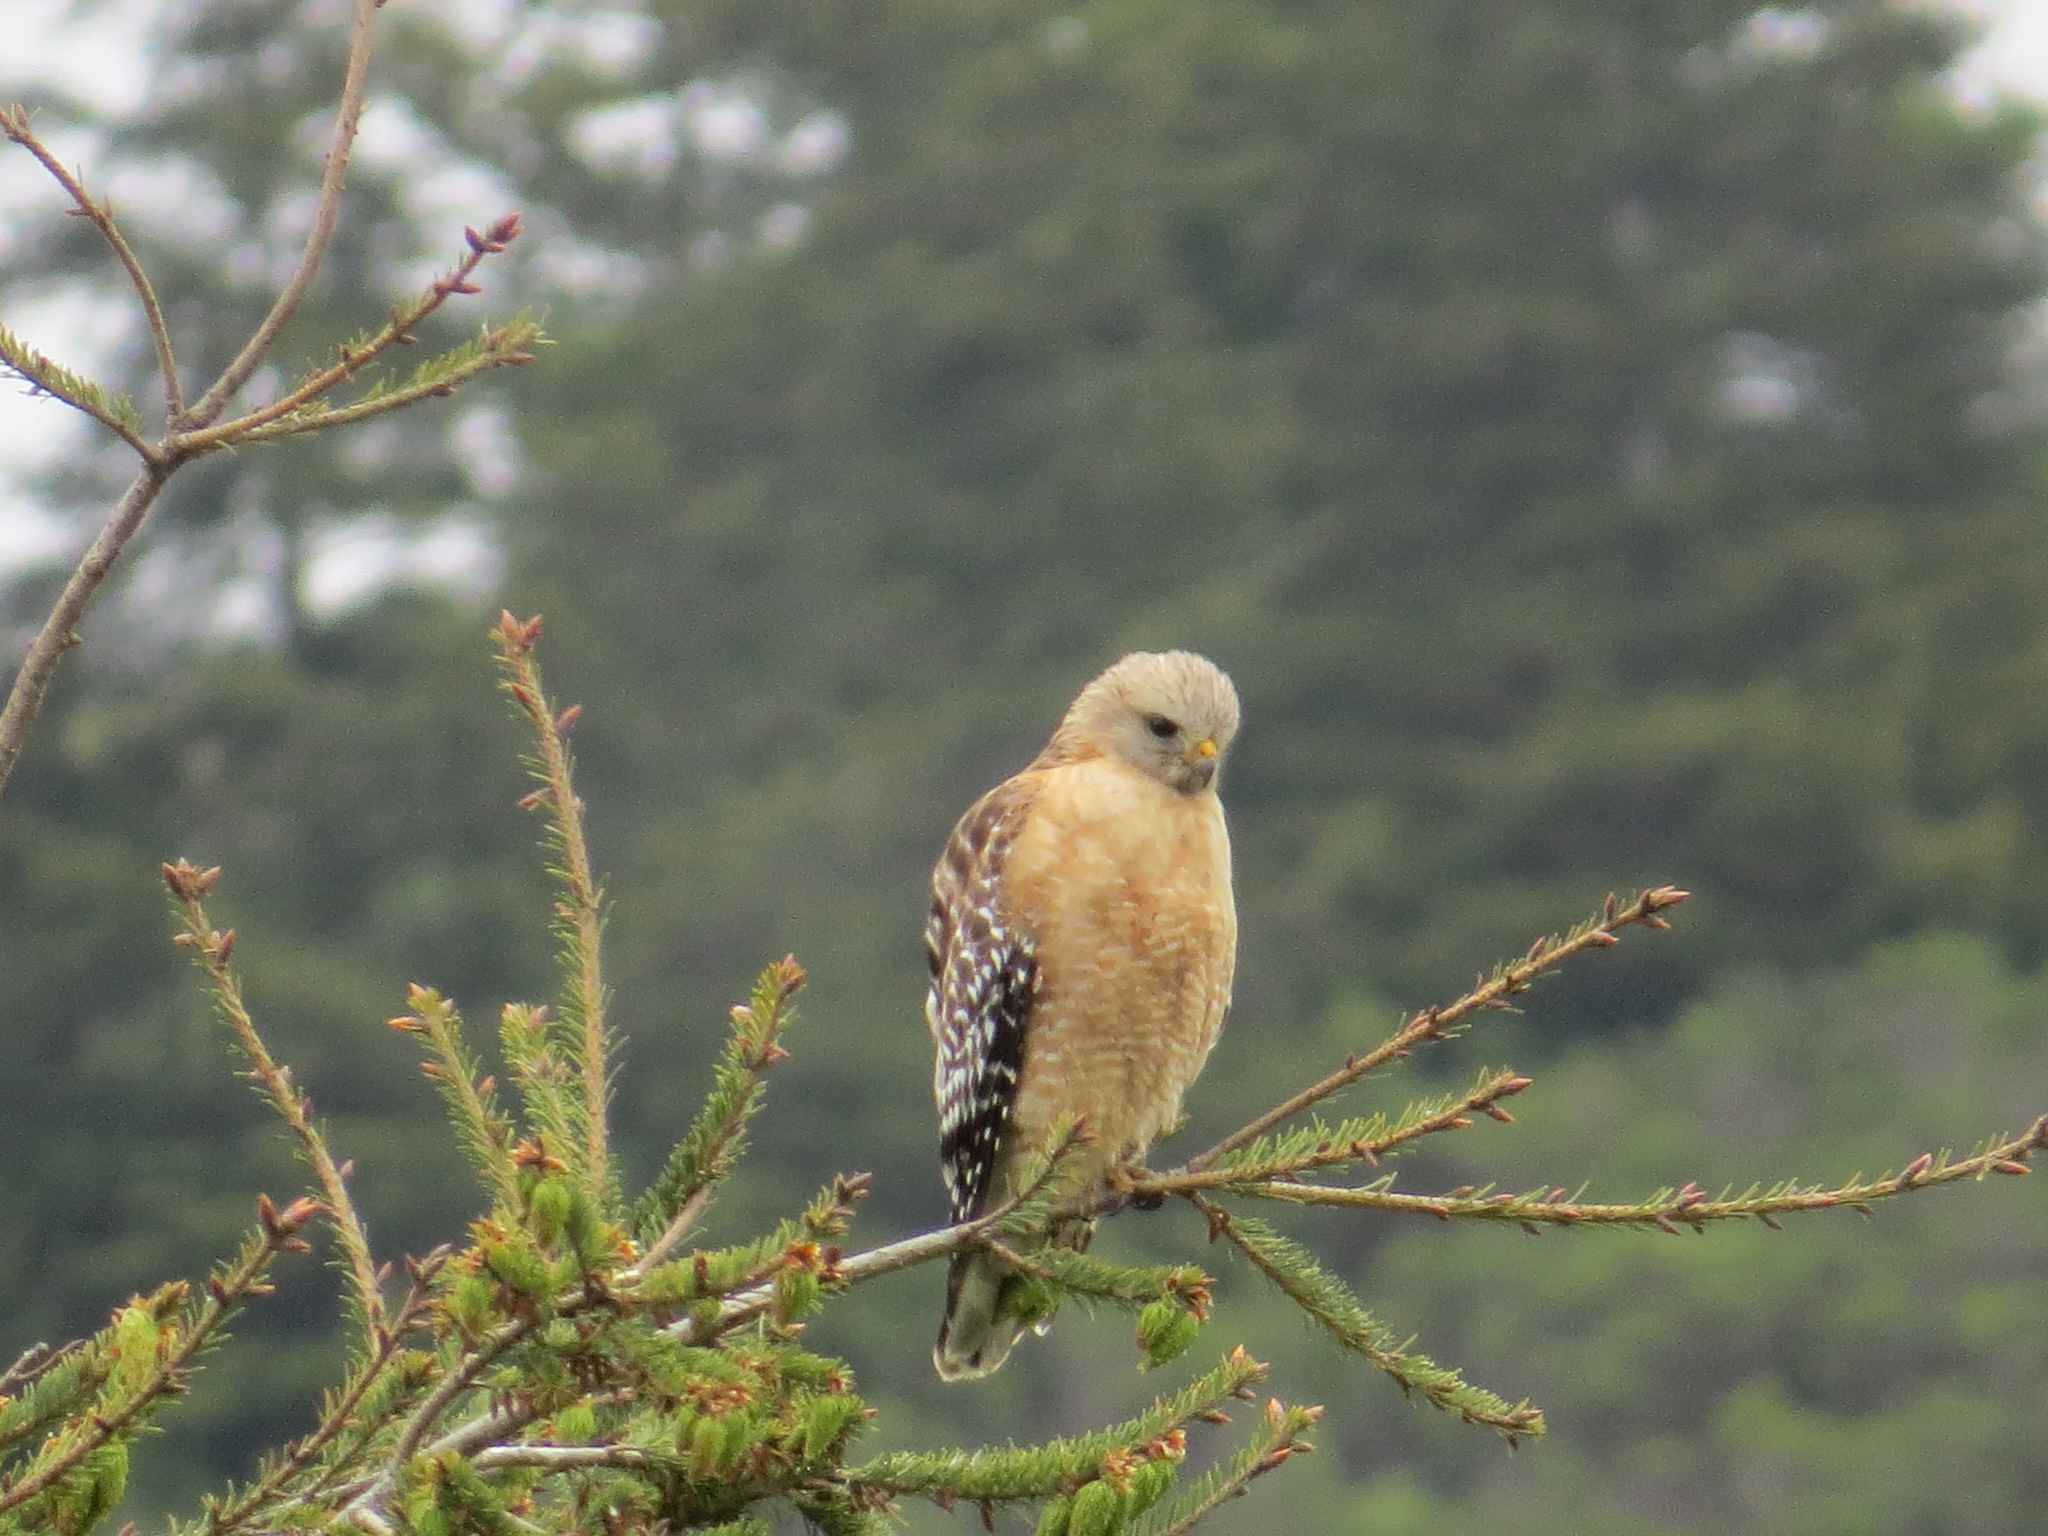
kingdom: Animalia
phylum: Chordata
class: Aves
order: Accipitriformes
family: Accipitridae
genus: Buteo
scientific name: Buteo lineatus
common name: Red-shouldered hawk
